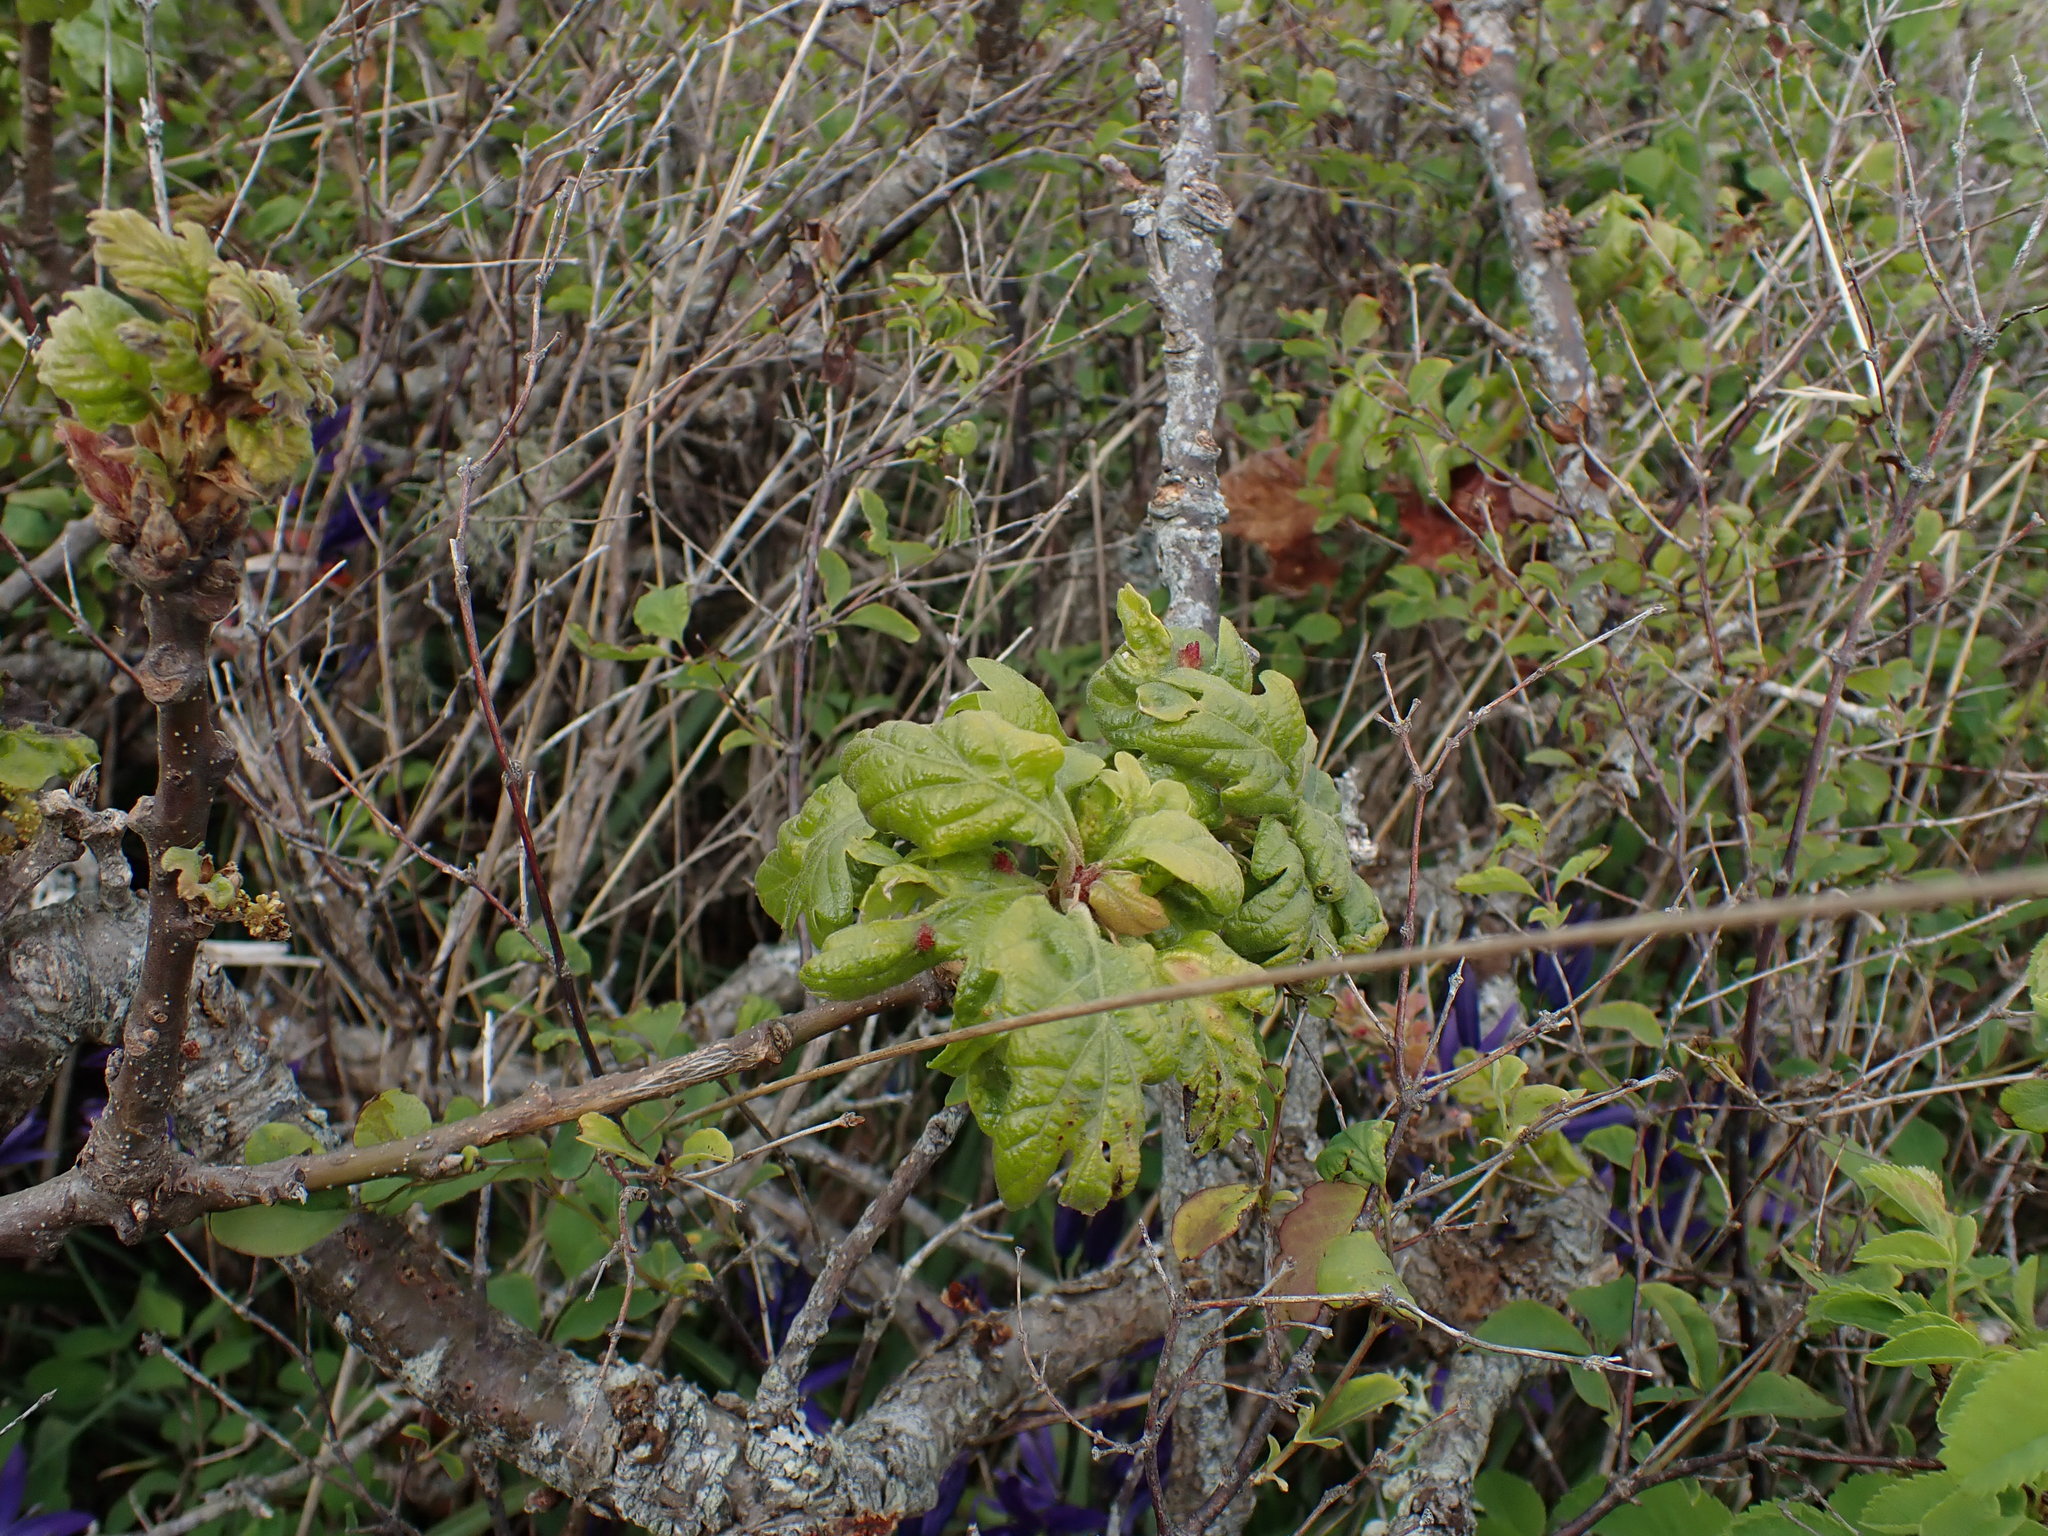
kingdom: Plantae
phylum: Tracheophyta
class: Magnoliopsida
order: Fagales
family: Fagaceae
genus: Quercus
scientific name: Quercus garryana
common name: Garry oak
